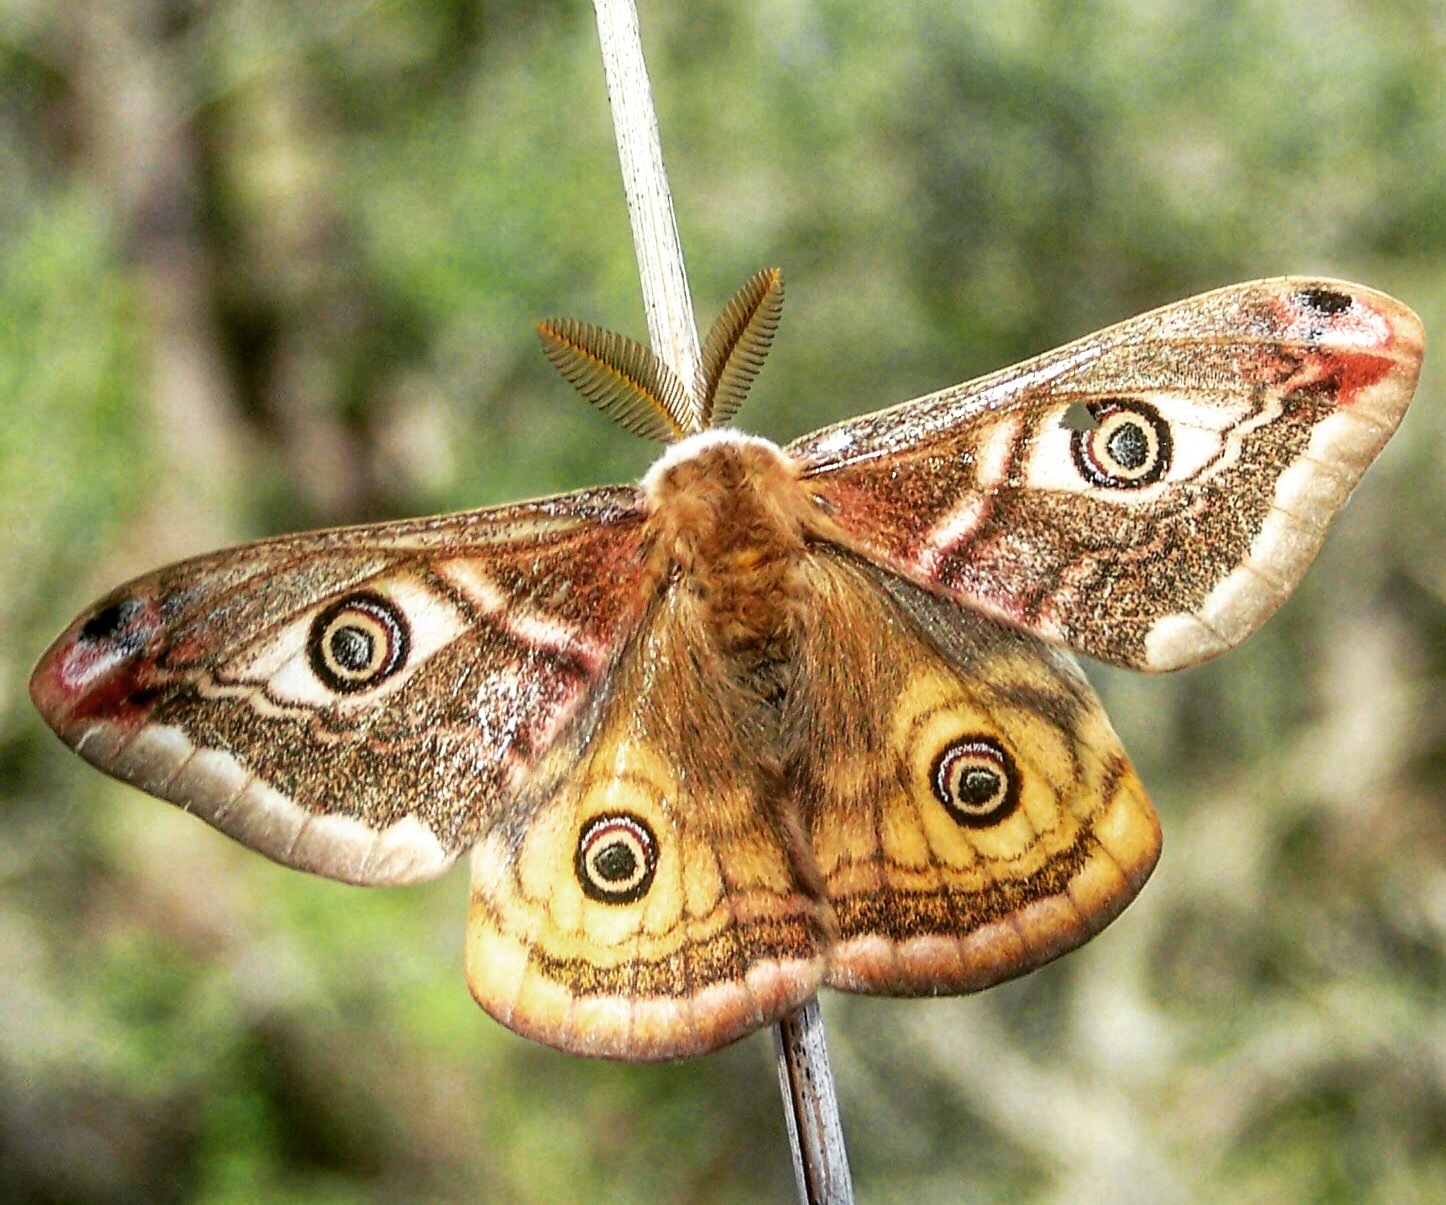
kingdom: Animalia
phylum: Arthropoda
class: Insecta
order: Lepidoptera
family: Saturniidae
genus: Saturnia
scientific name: Saturnia pavoniella
